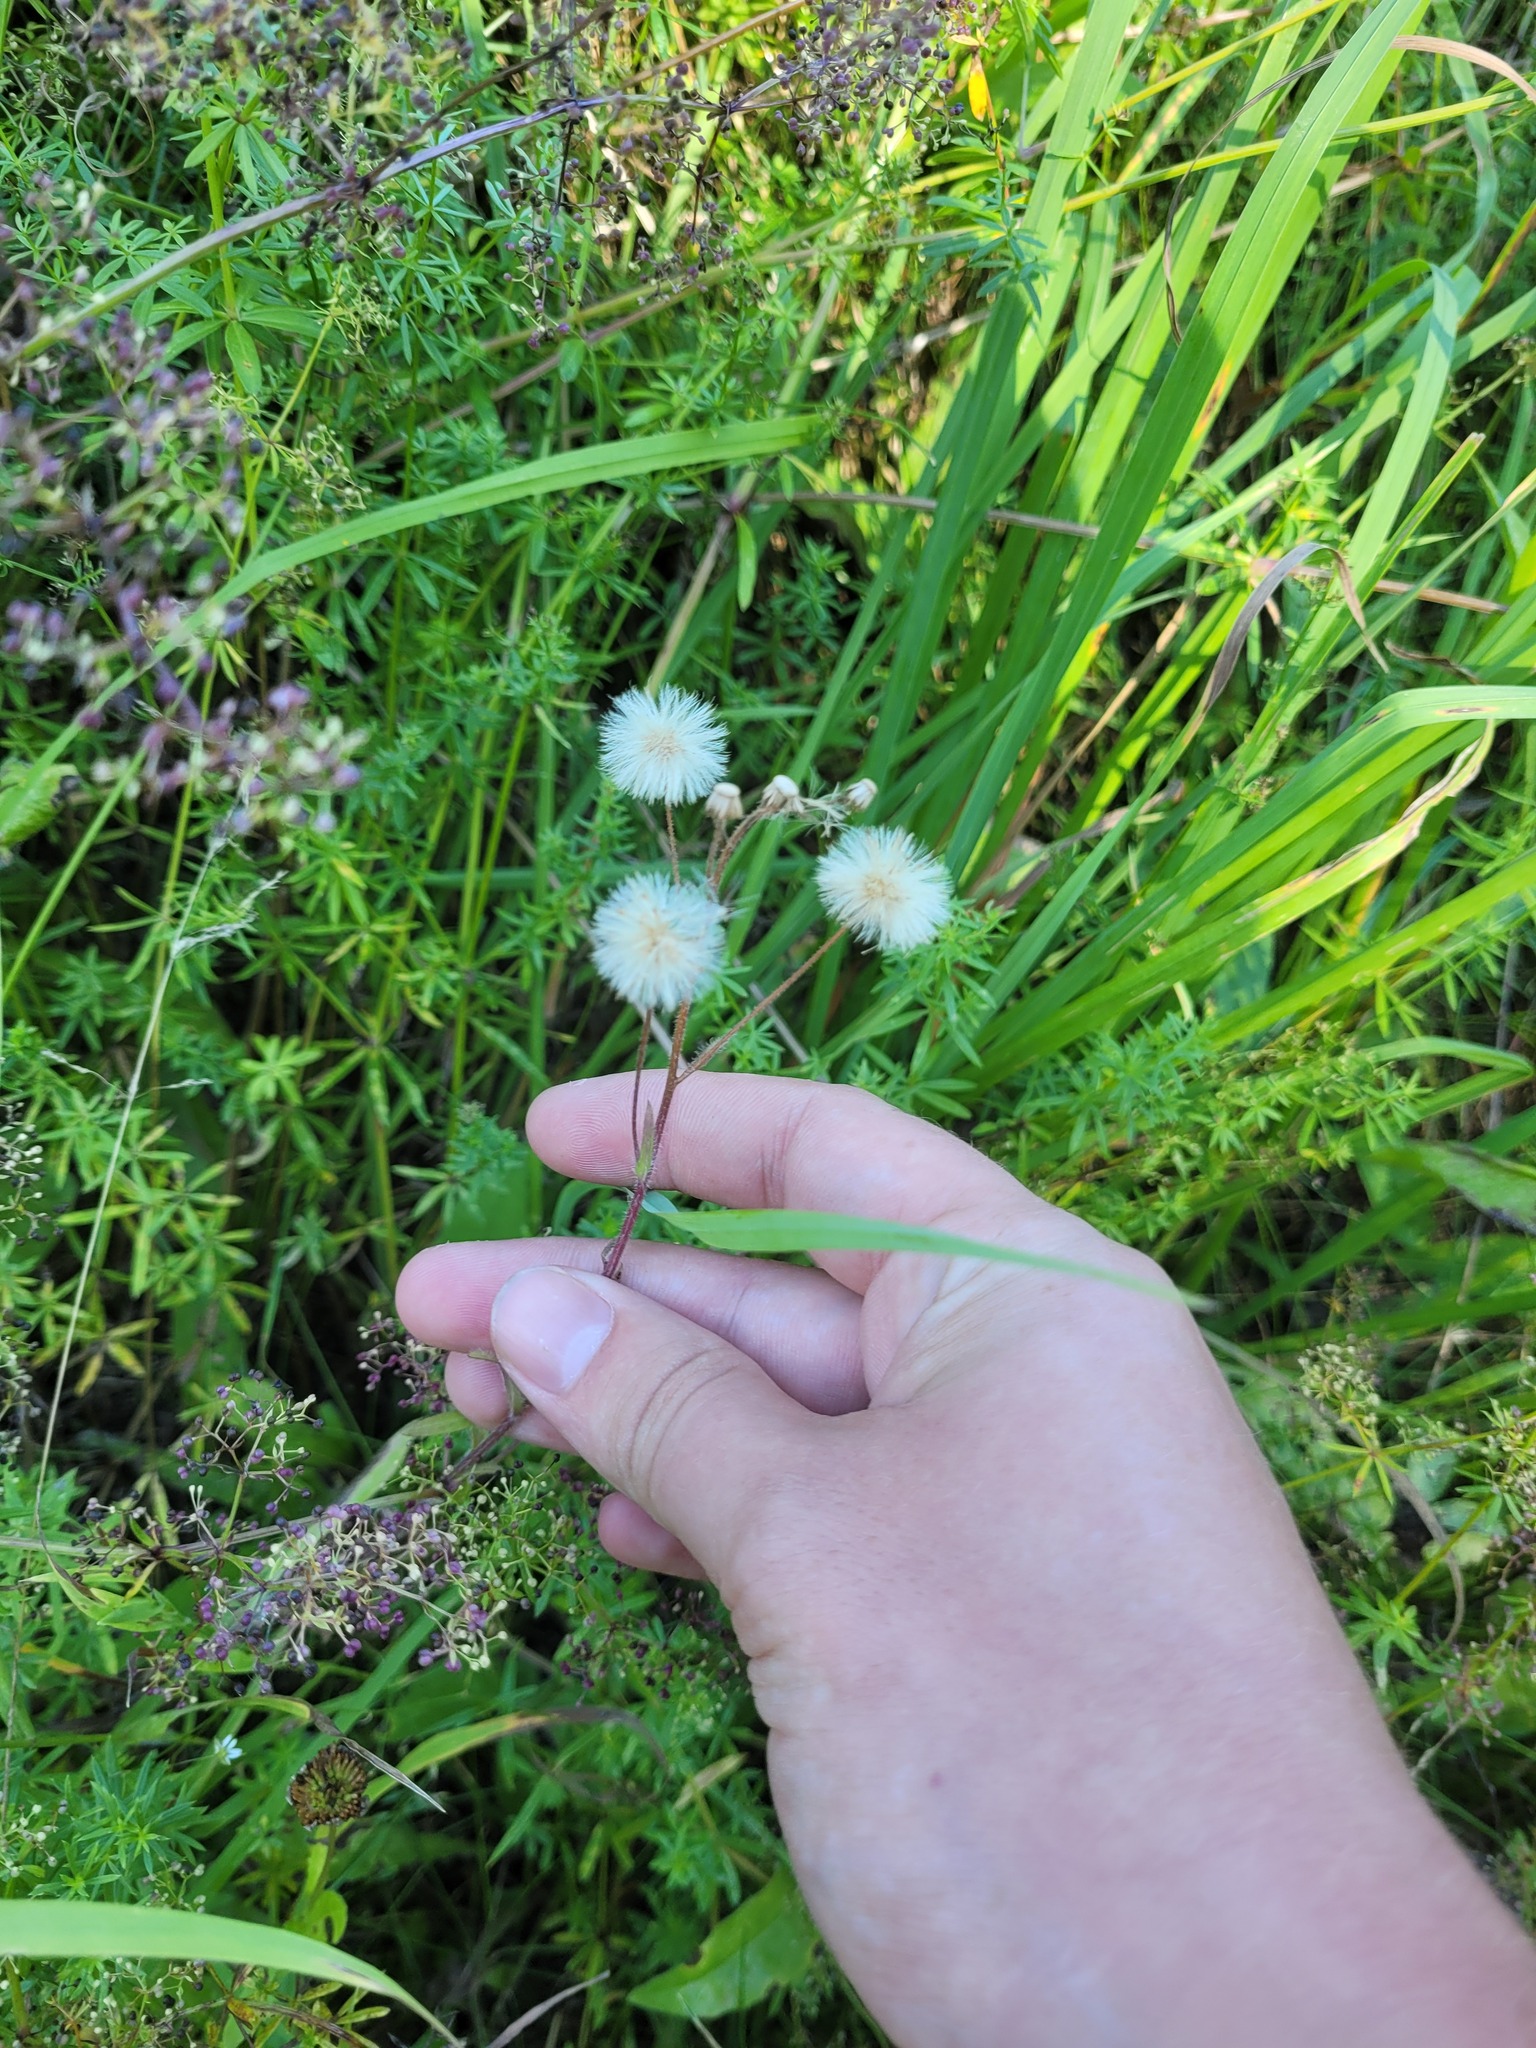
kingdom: Plantae
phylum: Tracheophyta
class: Magnoliopsida
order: Asterales
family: Asteraceae
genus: Erigeron
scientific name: Erigeron acris
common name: Blue fleabane
